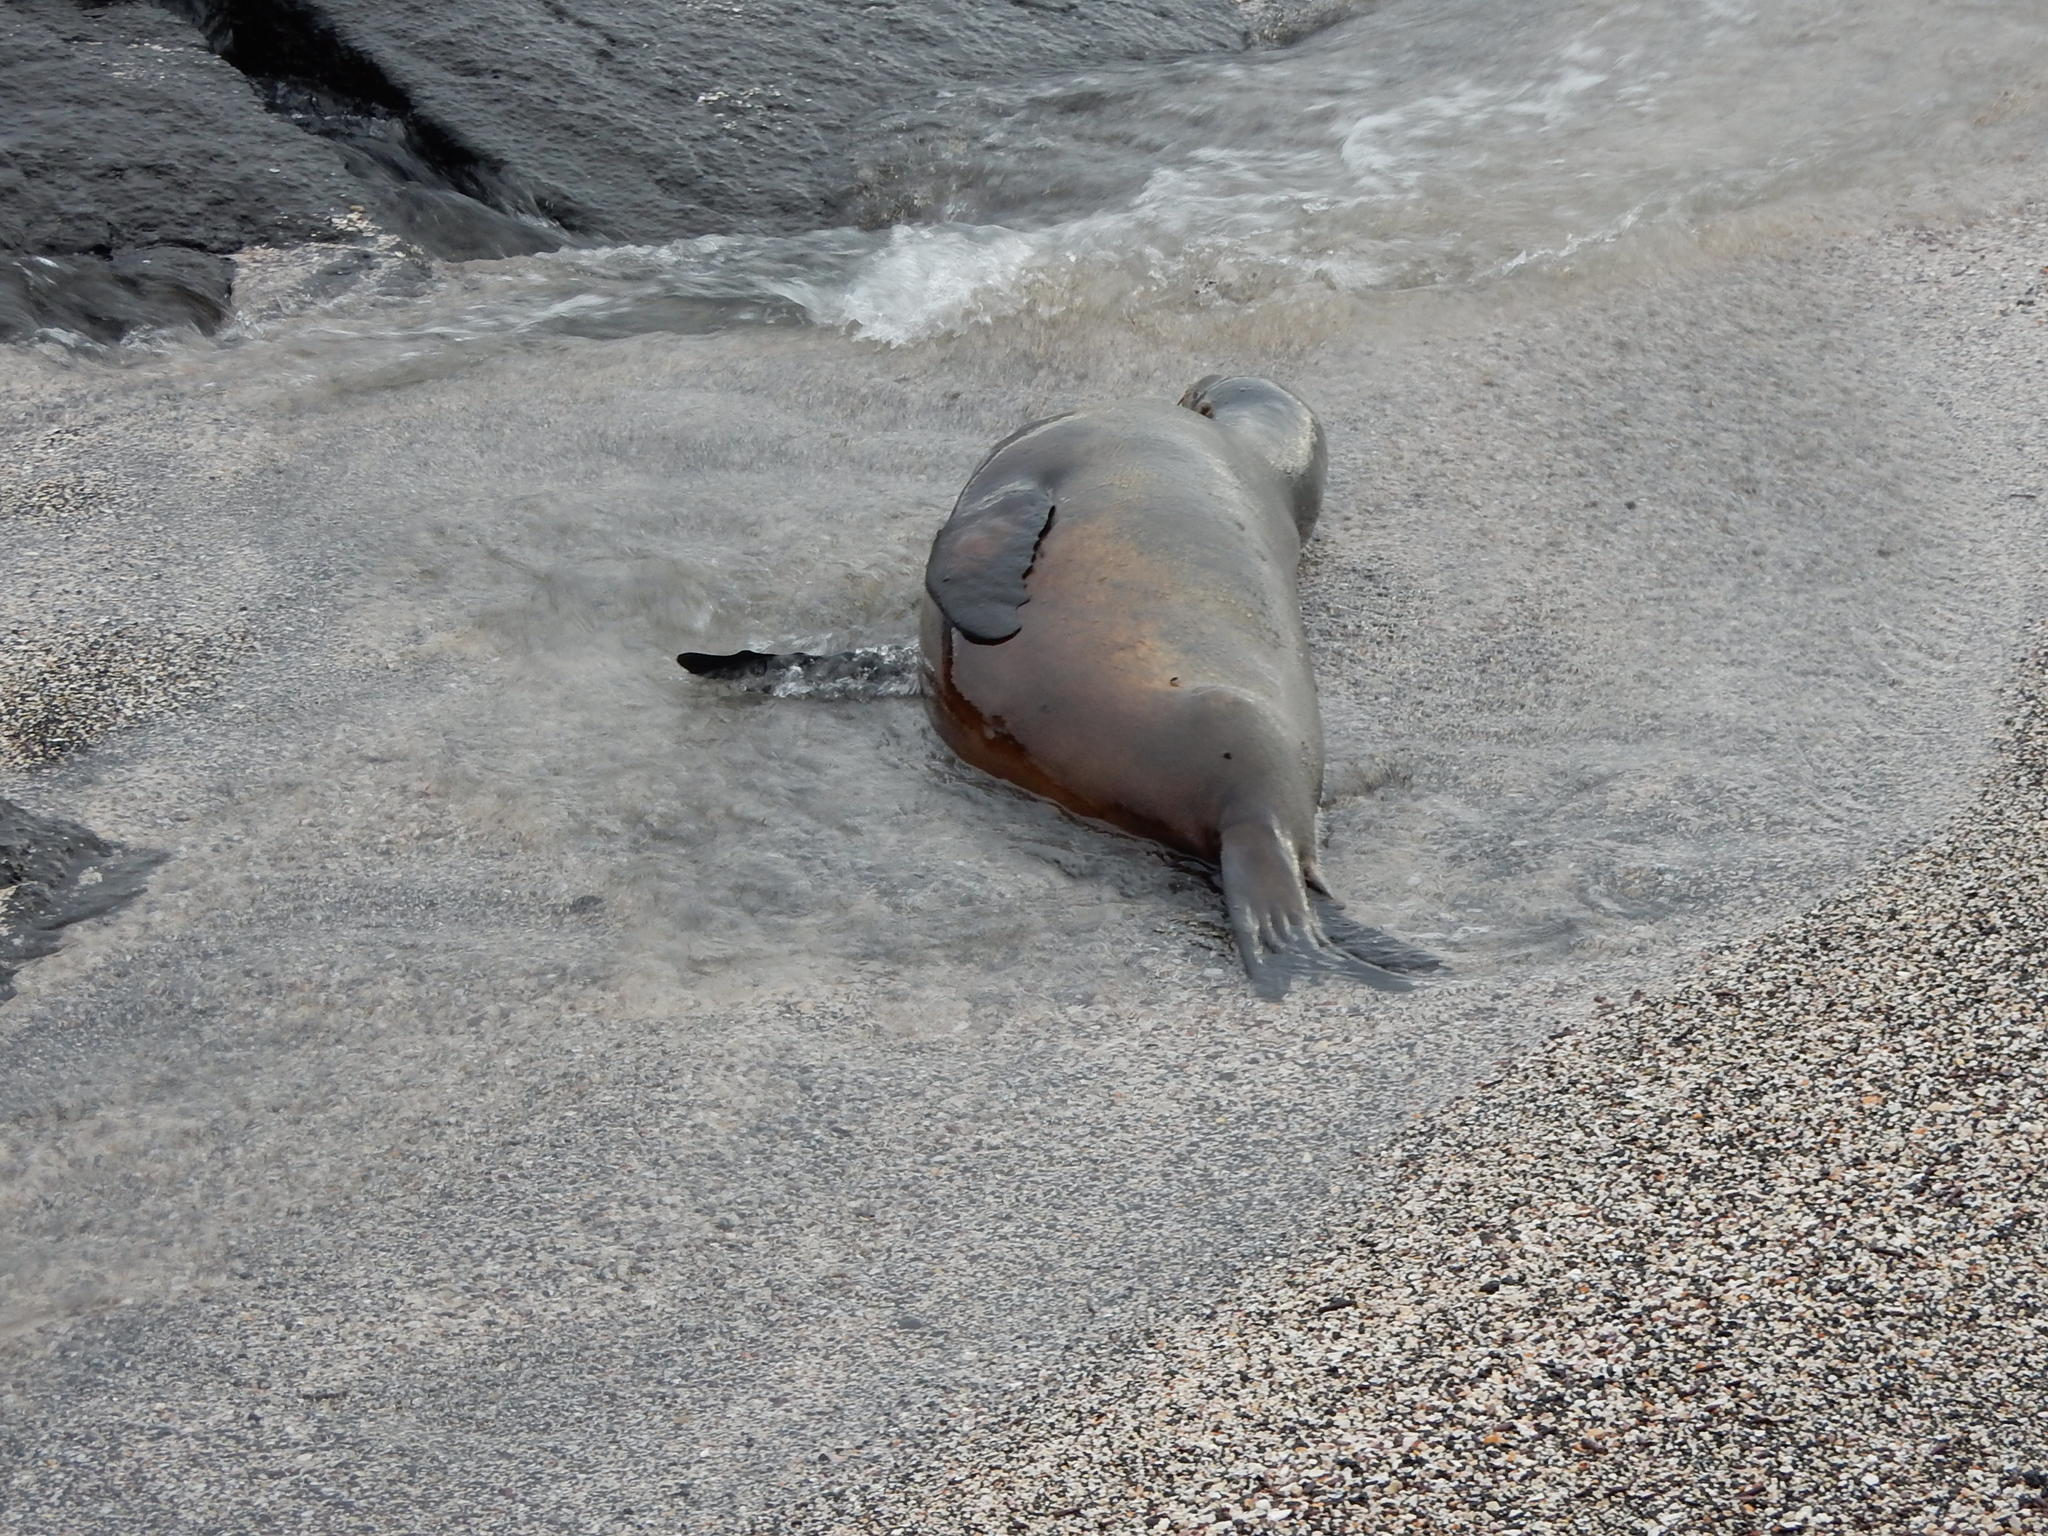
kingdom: Animalia
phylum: Chordata
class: Mammalia
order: Carnivora
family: Otariidae
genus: Zalophus
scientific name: Zalophus wollebaeki
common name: Galapagos sea lion
